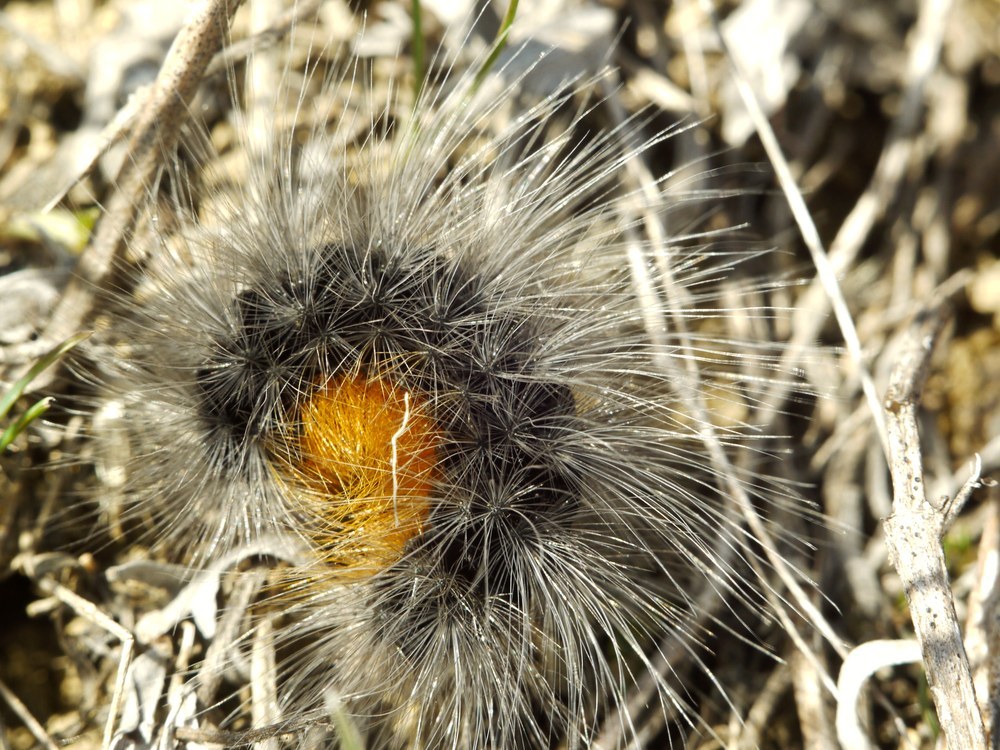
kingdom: Animalia
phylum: Arthropoda
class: Insecta
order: Lepidoptera
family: Erebidae
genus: Eucharia
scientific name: Eucharia festiva
